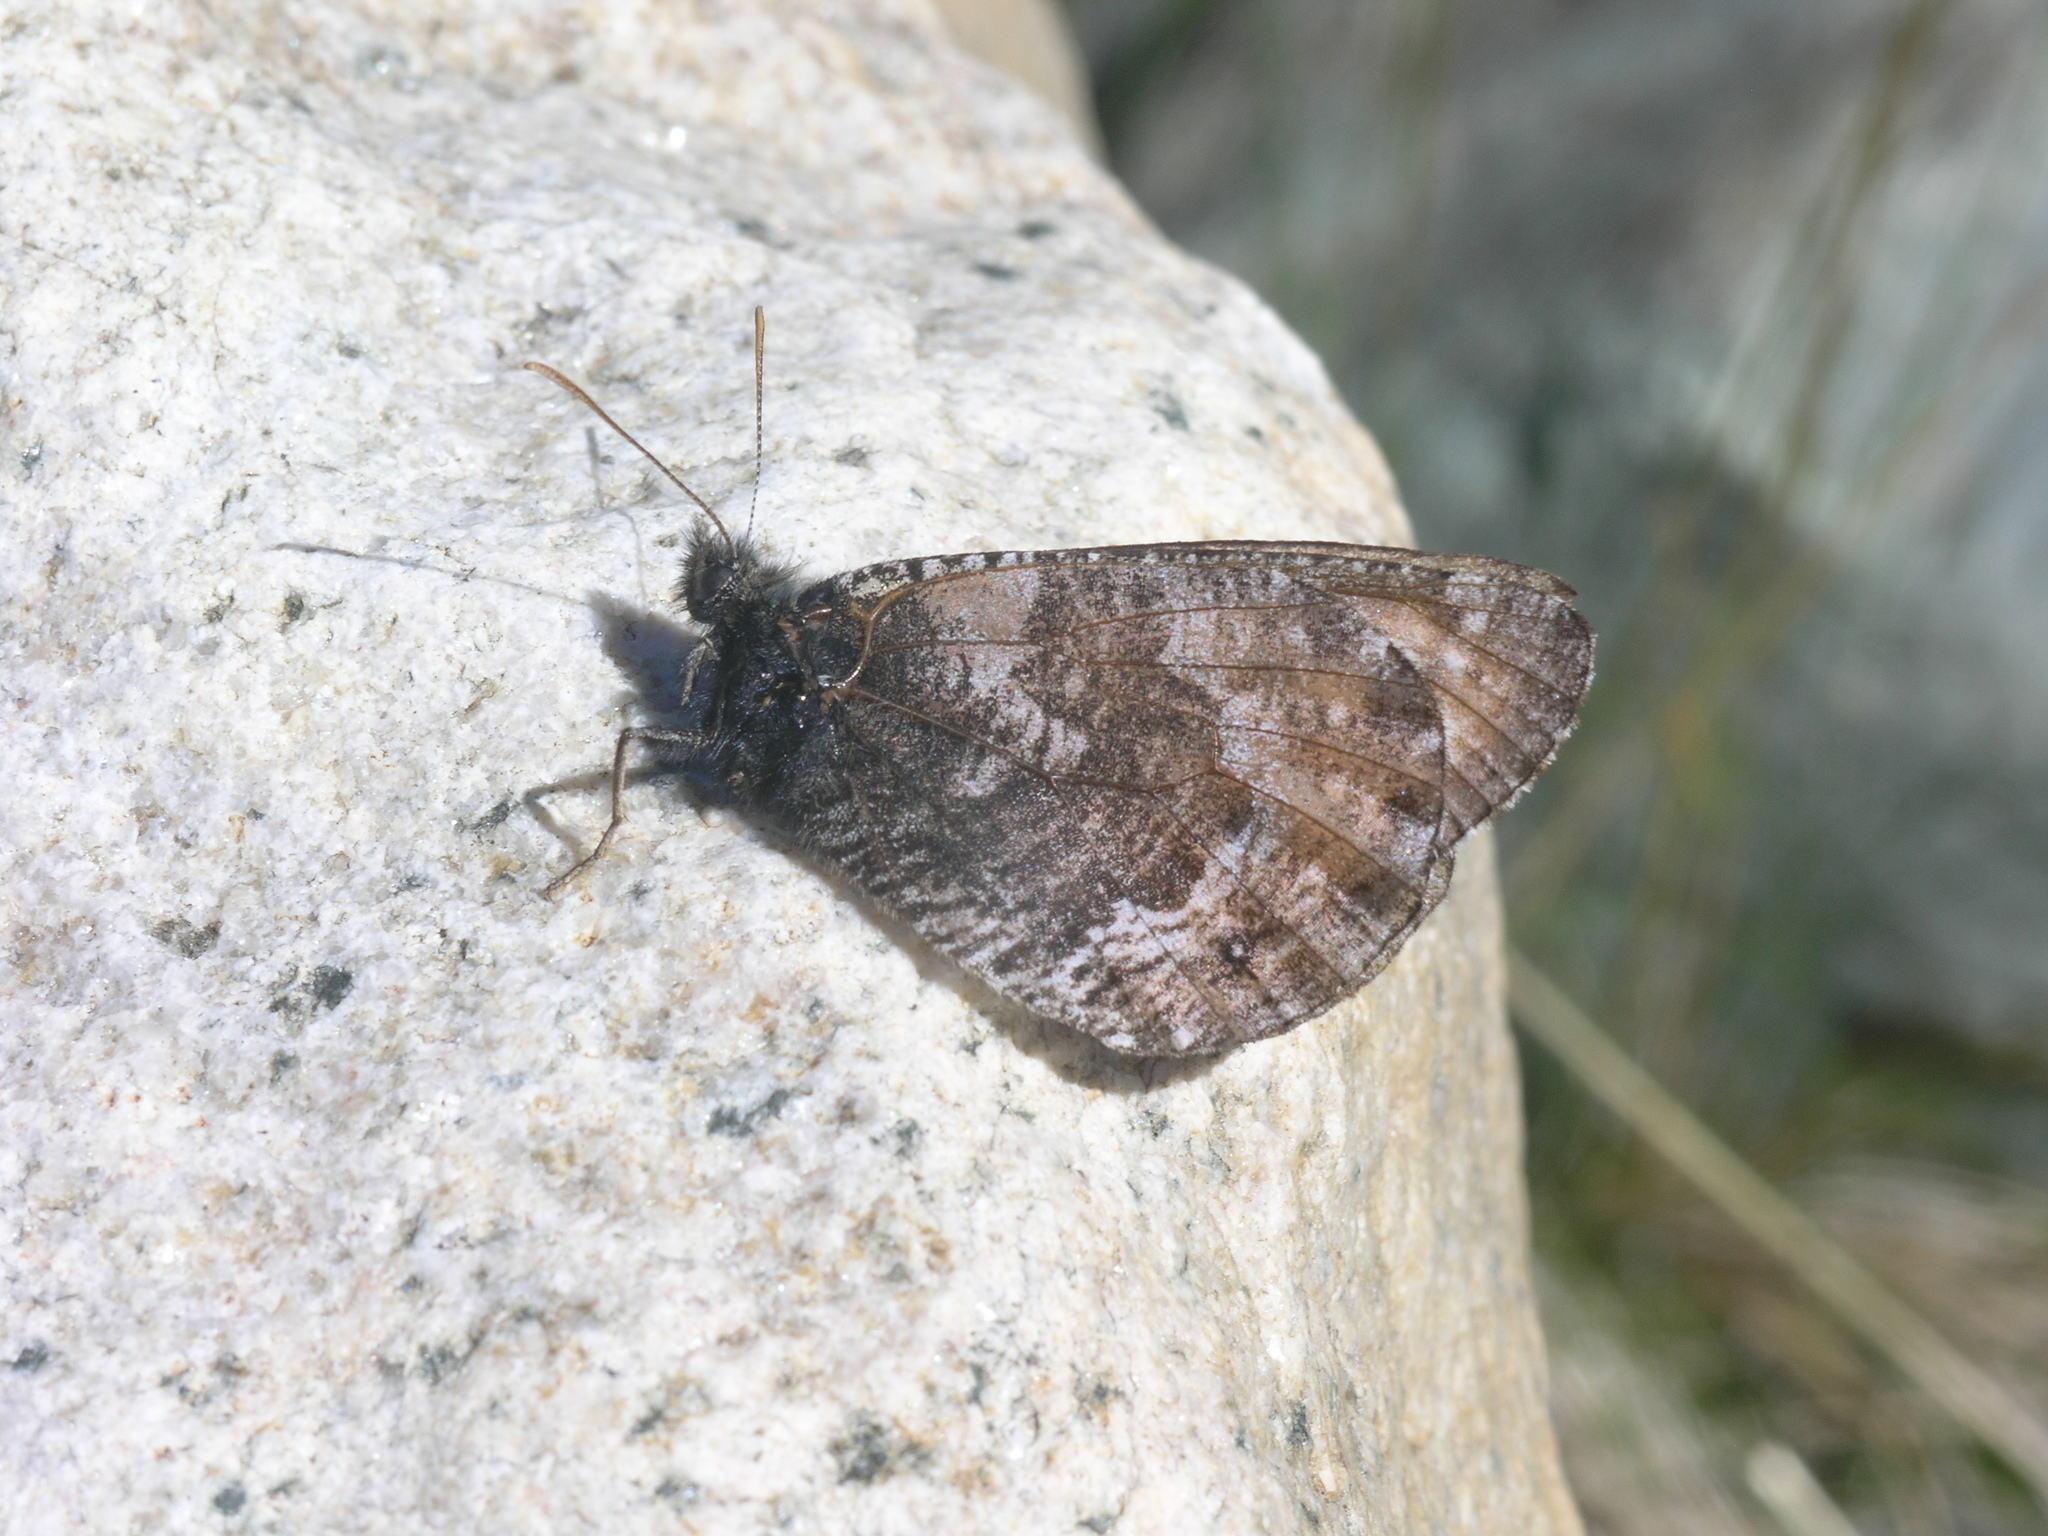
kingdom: Animalia
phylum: Arthropoda
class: Insecta
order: Lepidoptera
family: Nymphalidae
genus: Oeneis
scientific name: Oeneis norna
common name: Norse grayling
